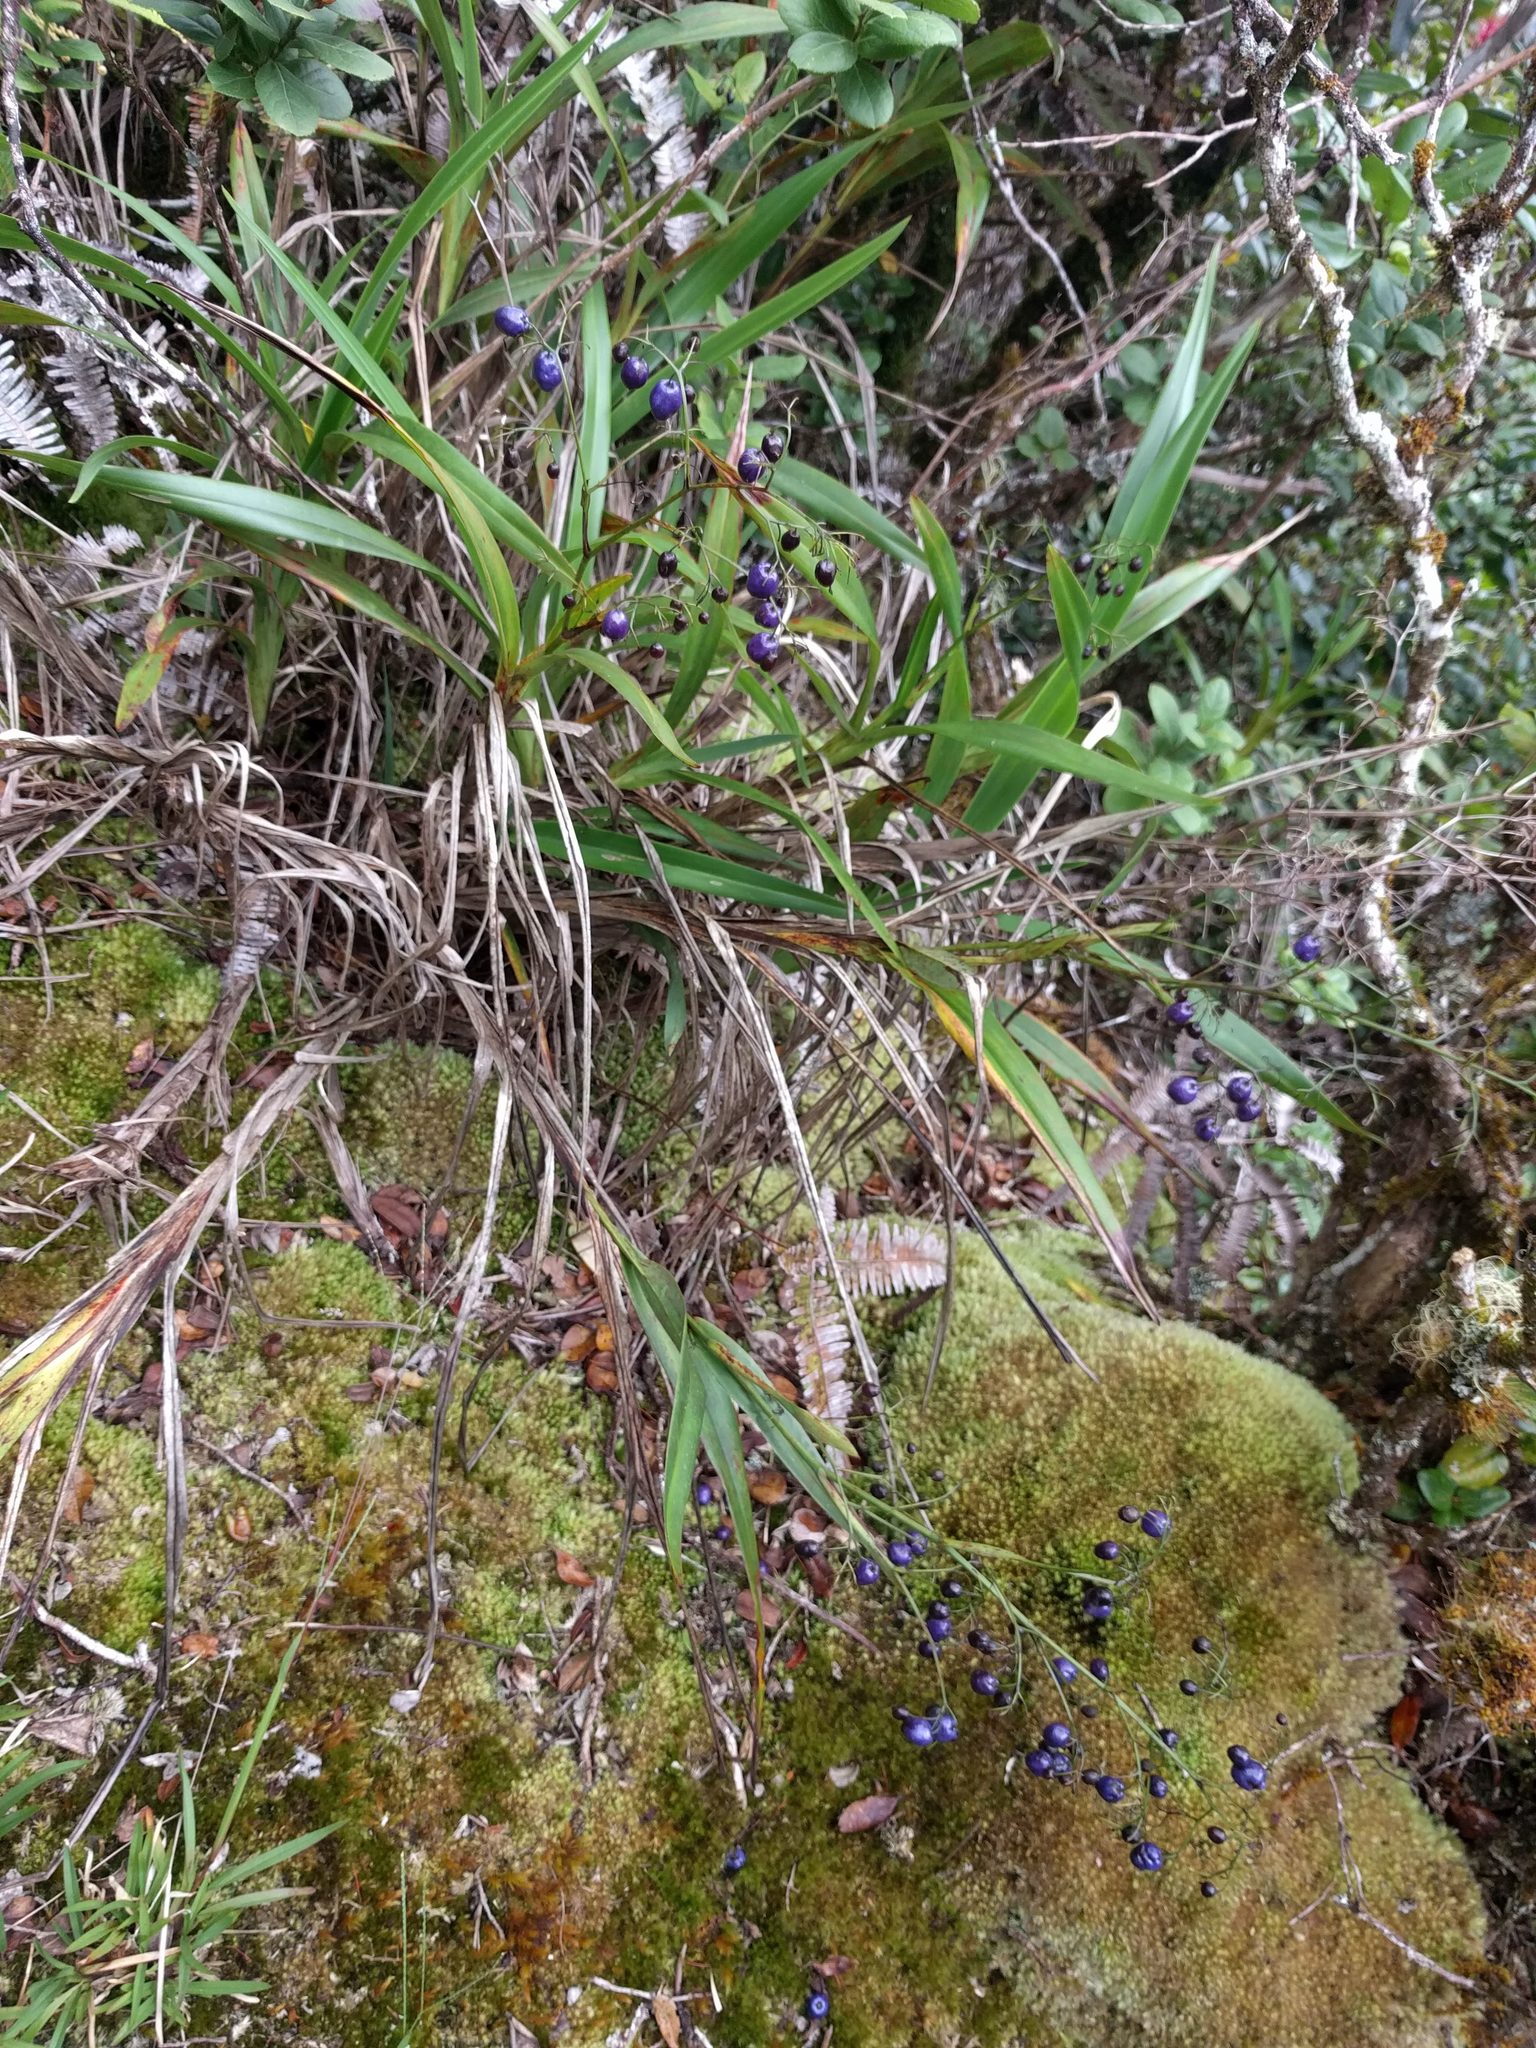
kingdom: Plantae
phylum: Tracheophyta
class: Liliopsida
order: Asparagales
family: Asphodelaceae
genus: Dianella
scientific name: Dianella sandwicensis
